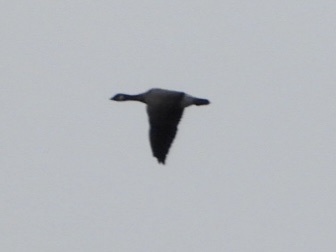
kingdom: Animalia
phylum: Chordata
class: Aves
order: Anseriformes
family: Anatidae
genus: Branta
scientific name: Branta hutchinsii
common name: Cackling goose
